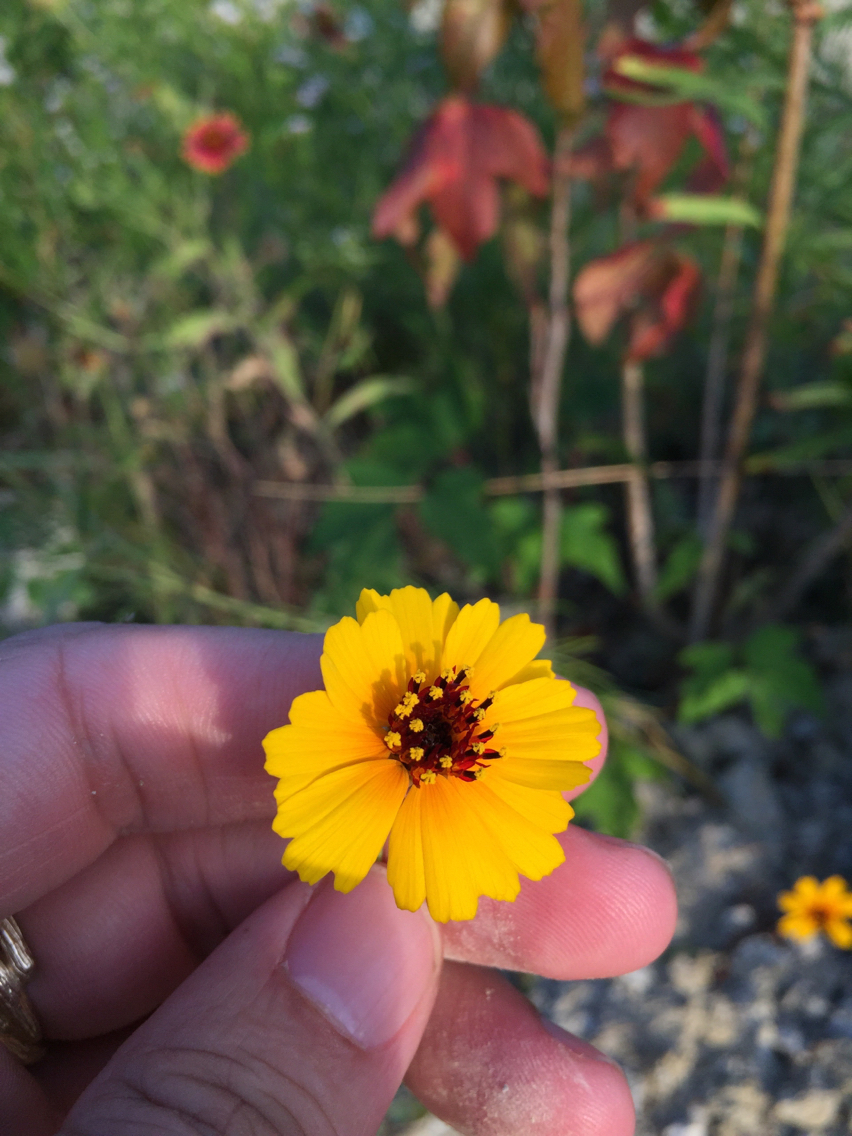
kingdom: Plantae
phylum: Tracheophyta
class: Magnoliopsida
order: Asterales
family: Asteraceae
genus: Thelesperma
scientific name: Thelesperma filifolium
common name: Stiff greenthread
